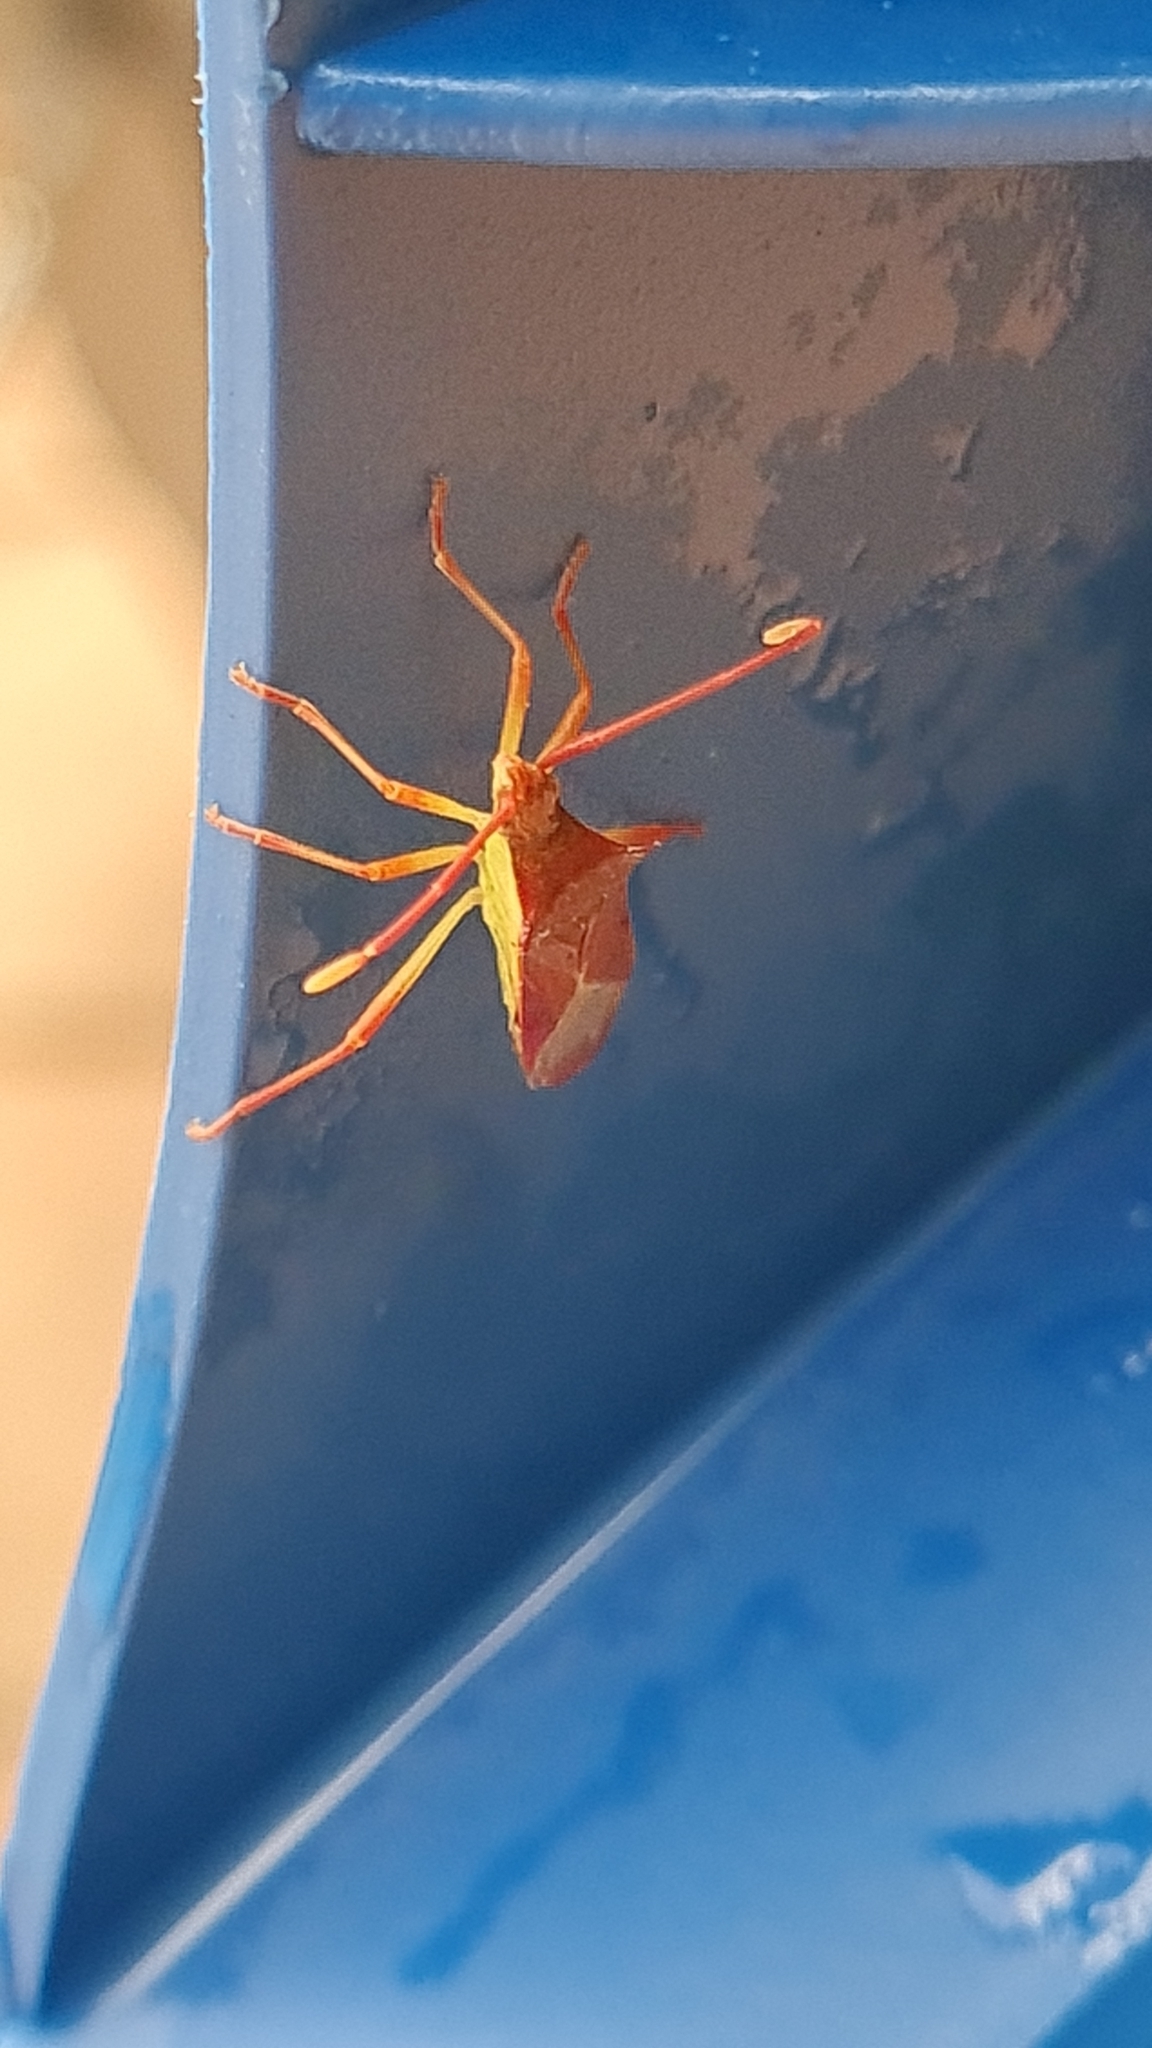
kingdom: Animalia
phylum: Arthropoda
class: Insecta
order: Hemiptera
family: Coreidae
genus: Gonocerus
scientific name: Gonocerus insidiator
